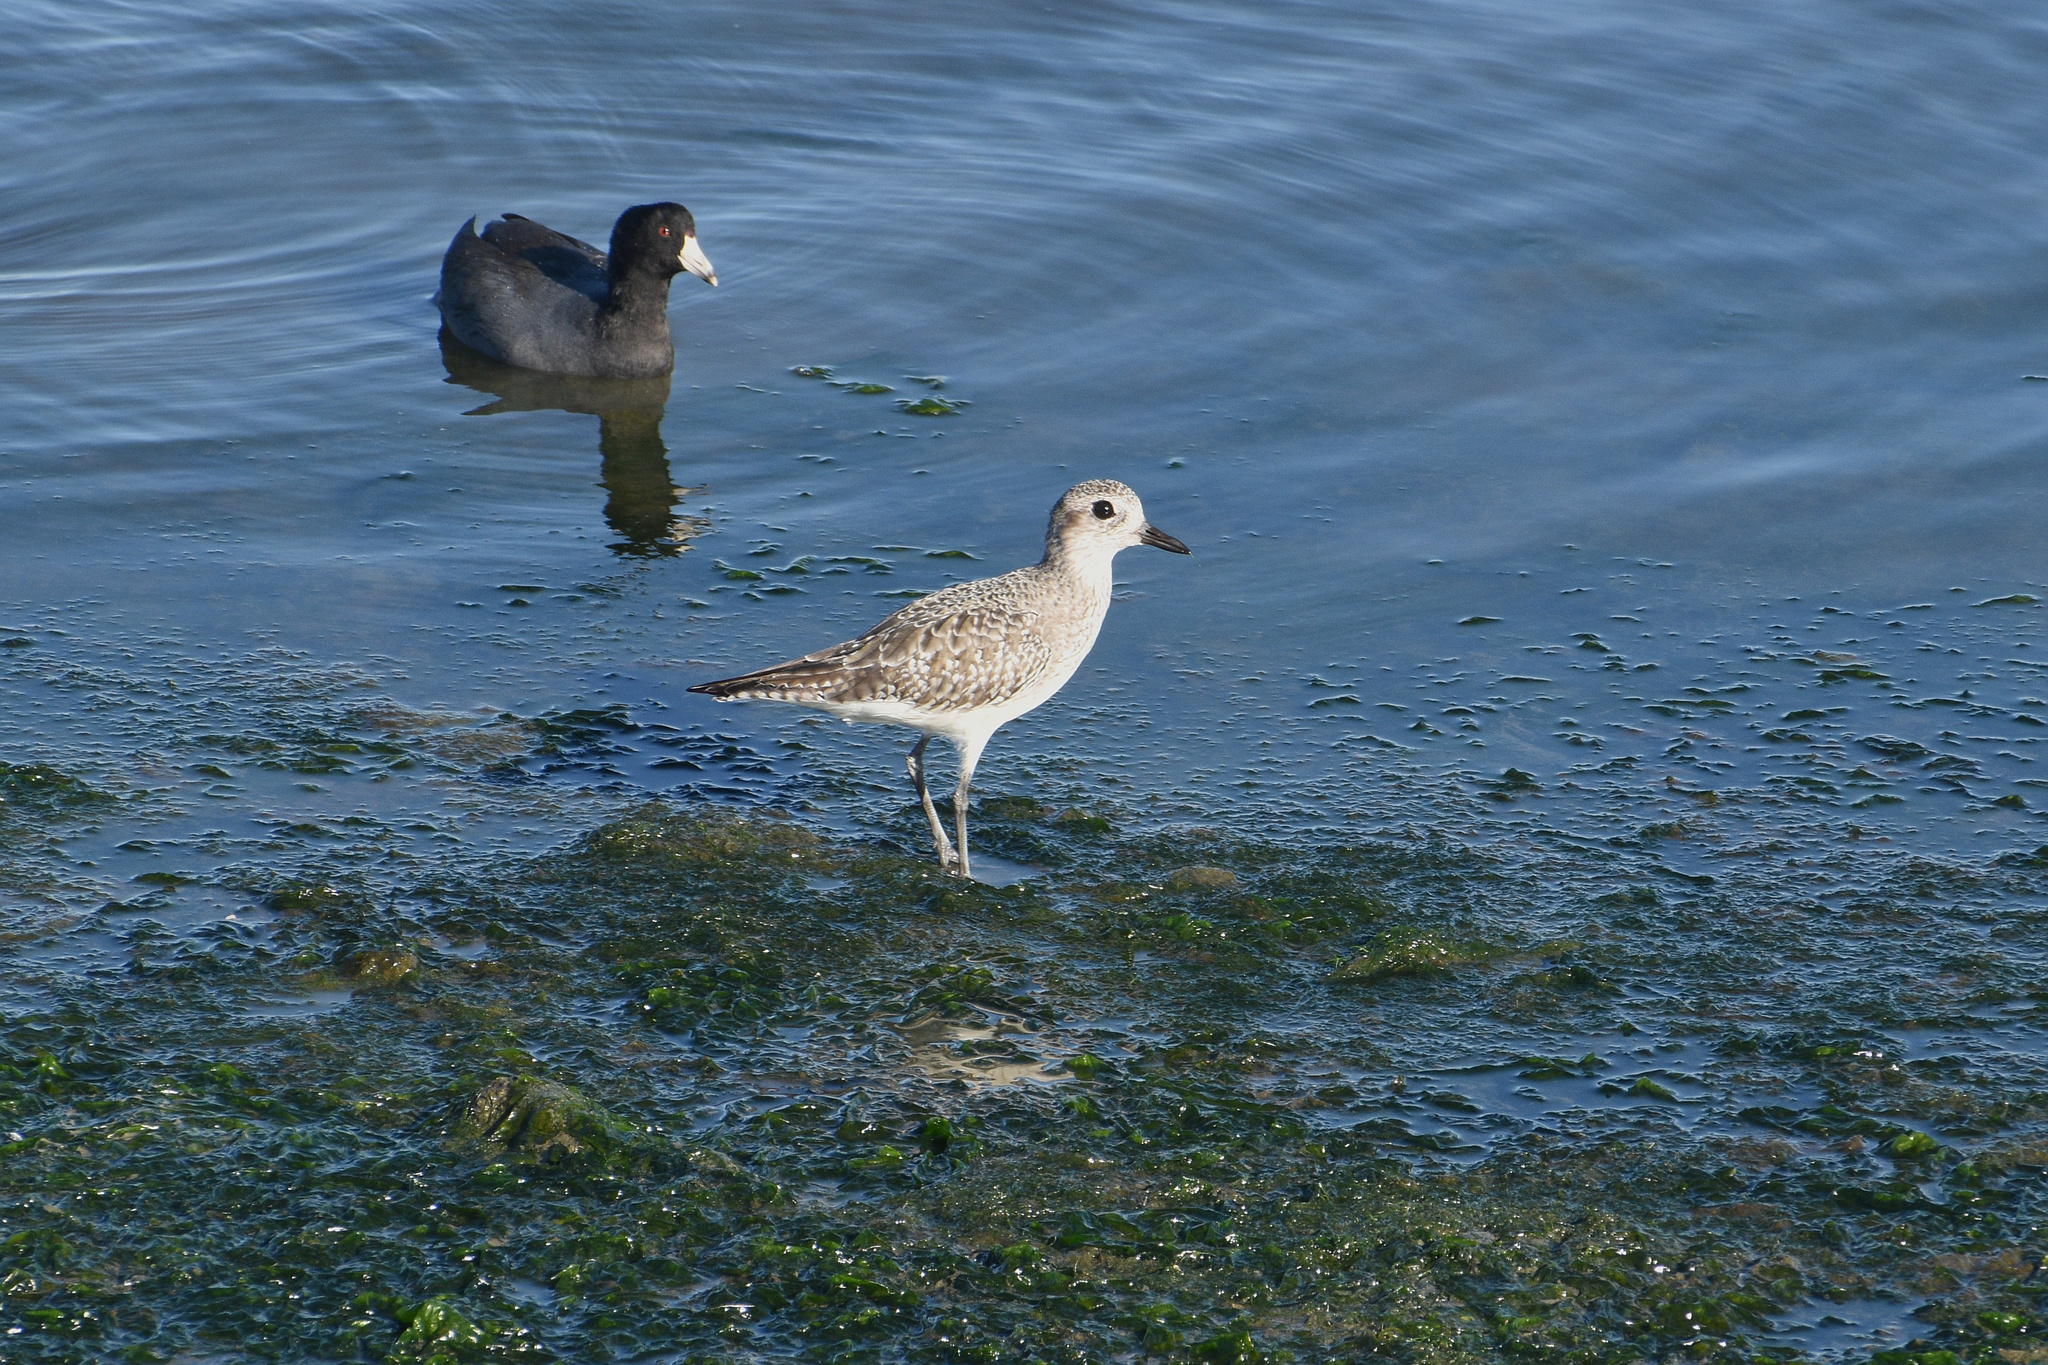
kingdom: Animalia
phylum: Chordata
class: Aves
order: Charadriiformes
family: Charadriidae
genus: Pluvialis
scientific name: Pluvialis squatarola
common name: Grey plover
